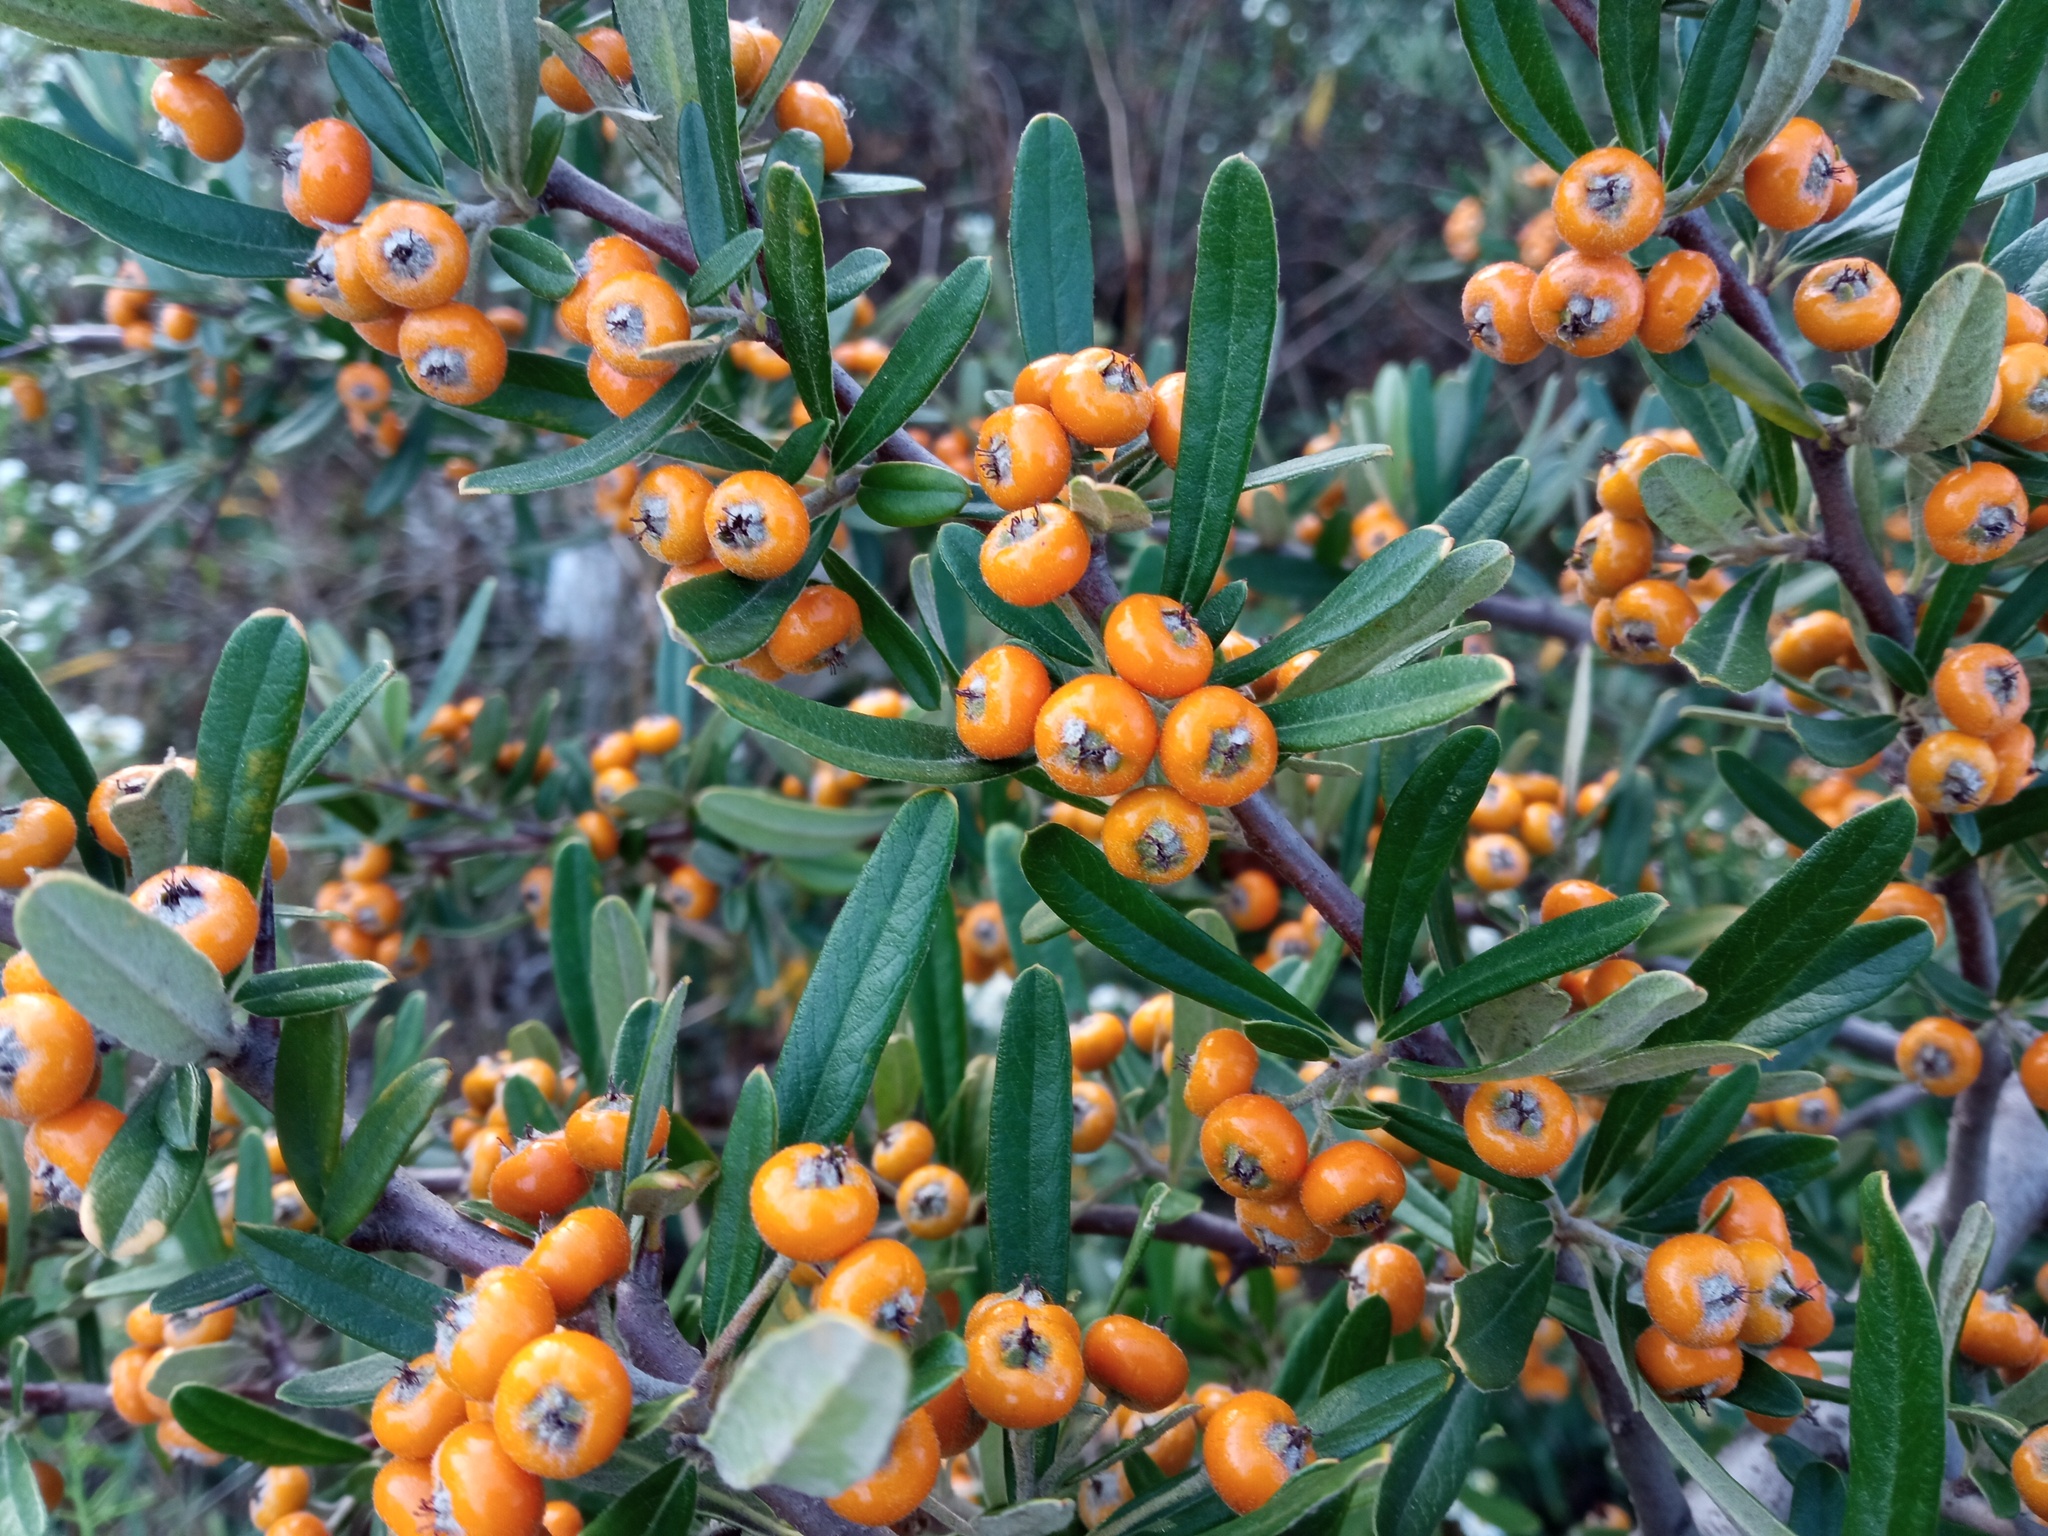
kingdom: Plantae
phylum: Tracheophyta
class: Magnoliopsida
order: Rosales
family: Rosaceae
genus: Pyracantha
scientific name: Pyracantha angustifolia
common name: Narrowleaf firethorn
